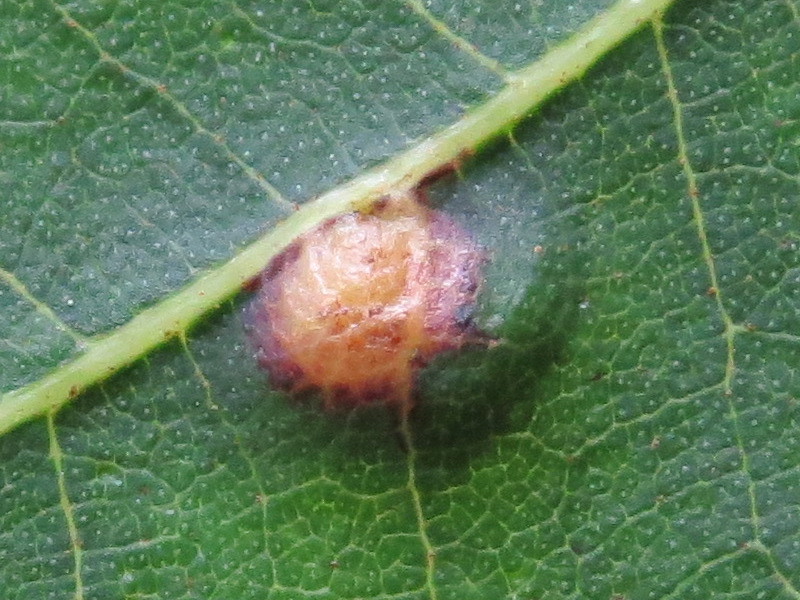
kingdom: Animalia
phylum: Arthropoda
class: Insecta
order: Diptera
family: Cecidomyiidae
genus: Caryomyia
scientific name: Caryomyia biretta
